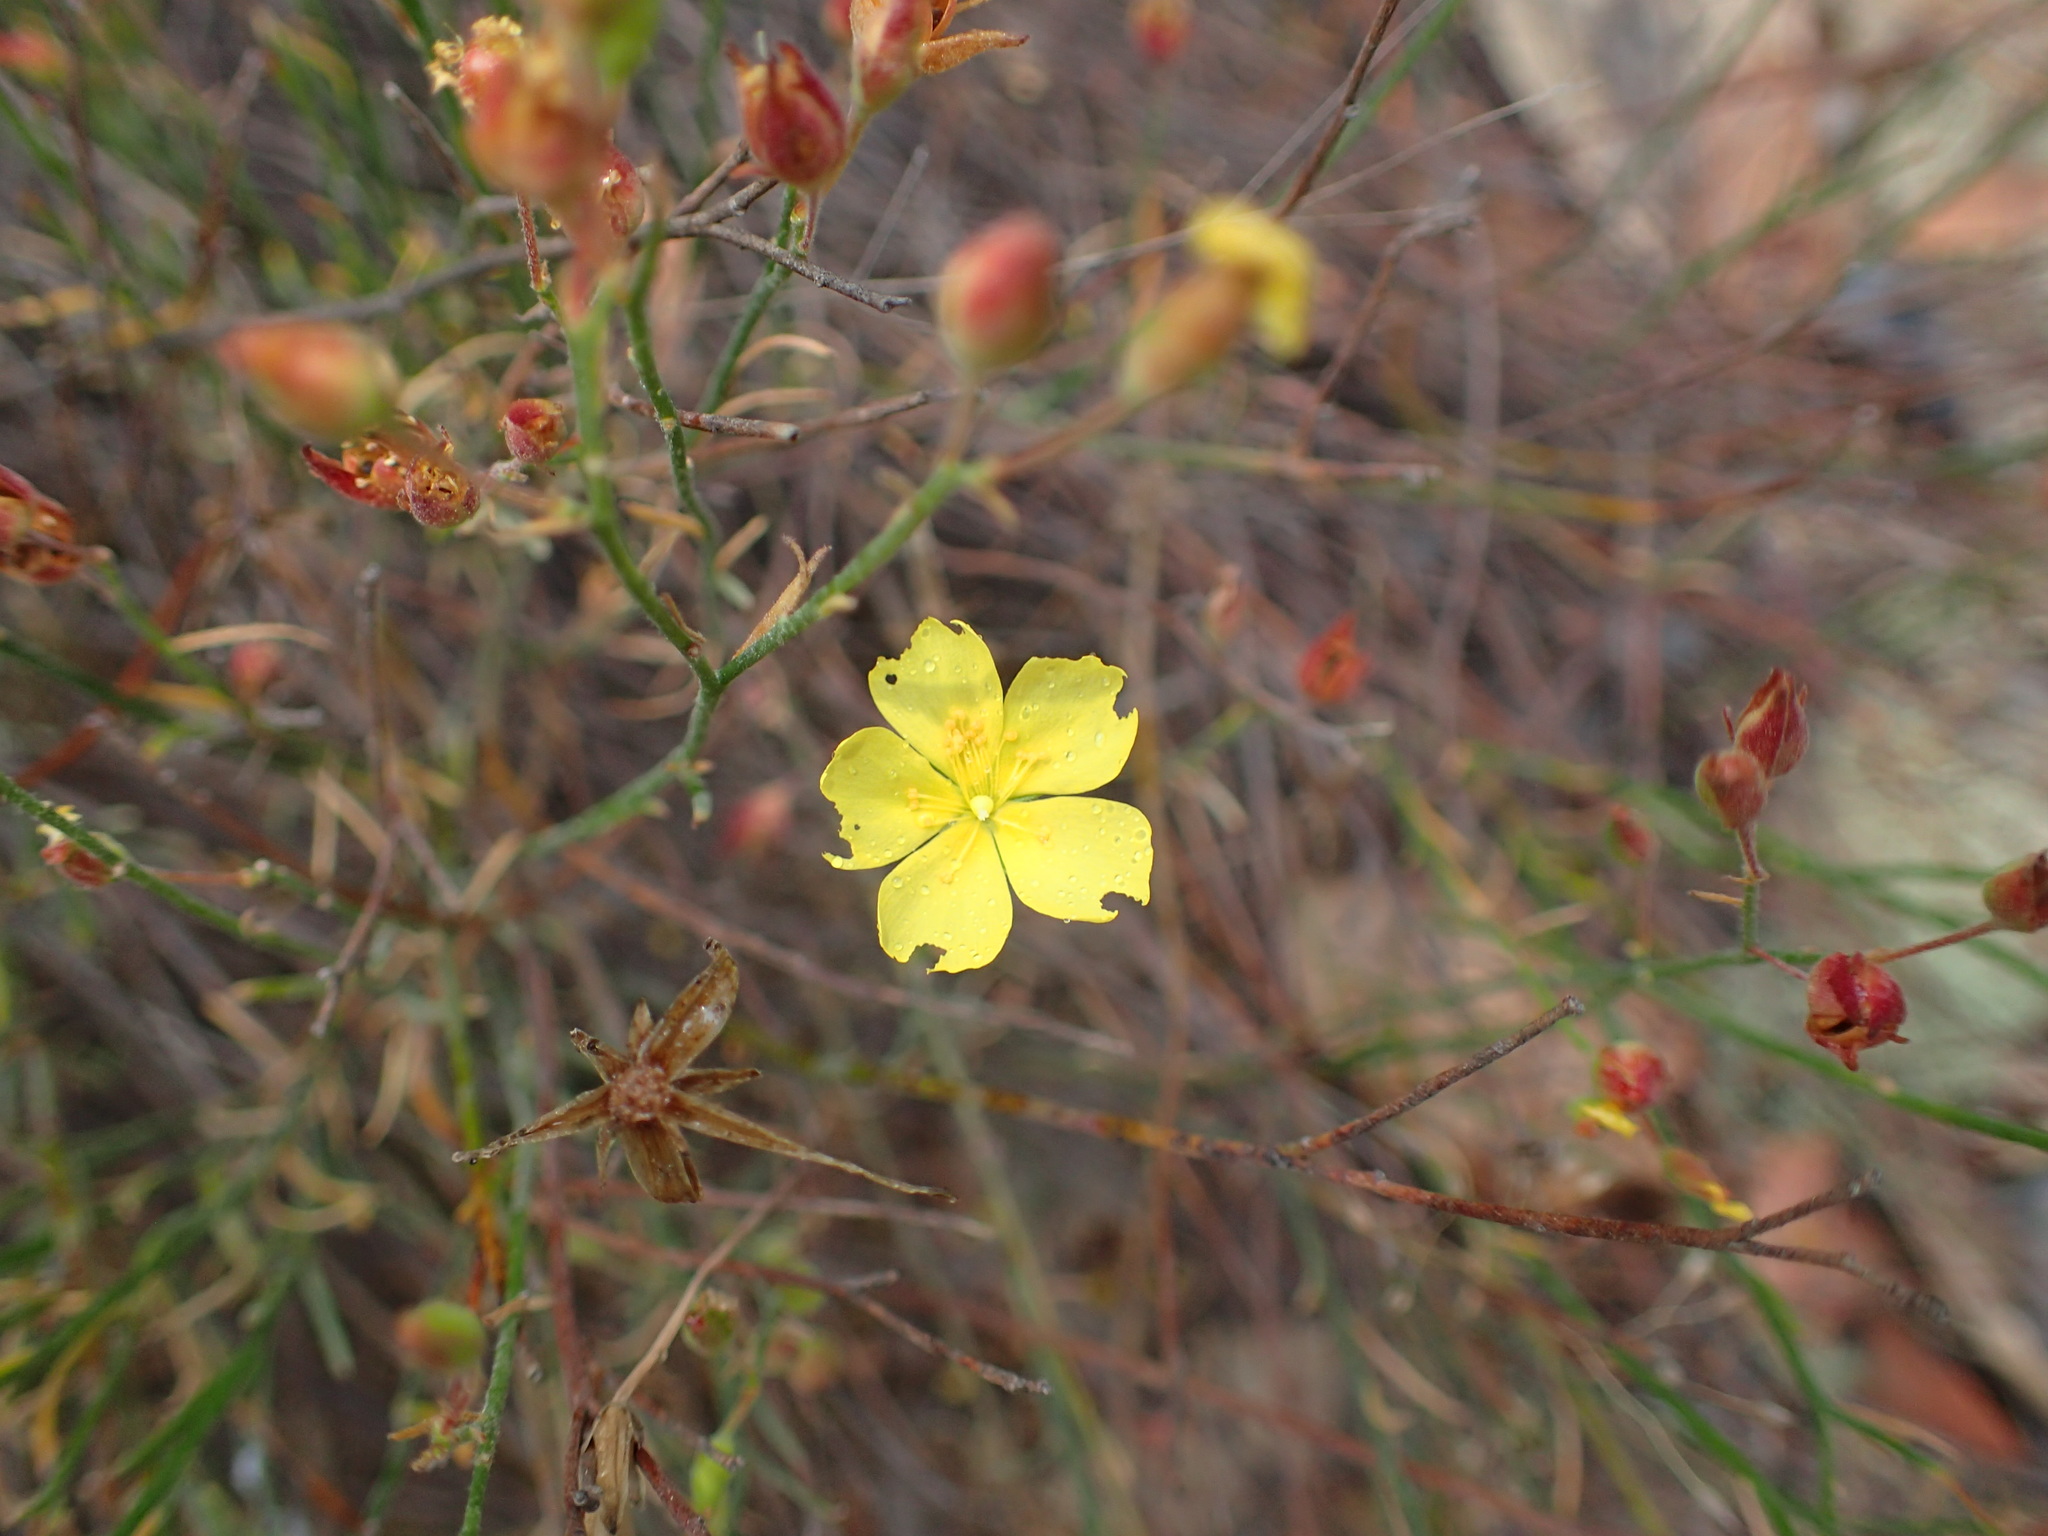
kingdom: Plantae
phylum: Tracheophyta
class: Magnoliopsida
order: Malvales
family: Cistaceae
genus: Crocanthemum
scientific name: Crocanthemum scoparium
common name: Broom-rose
